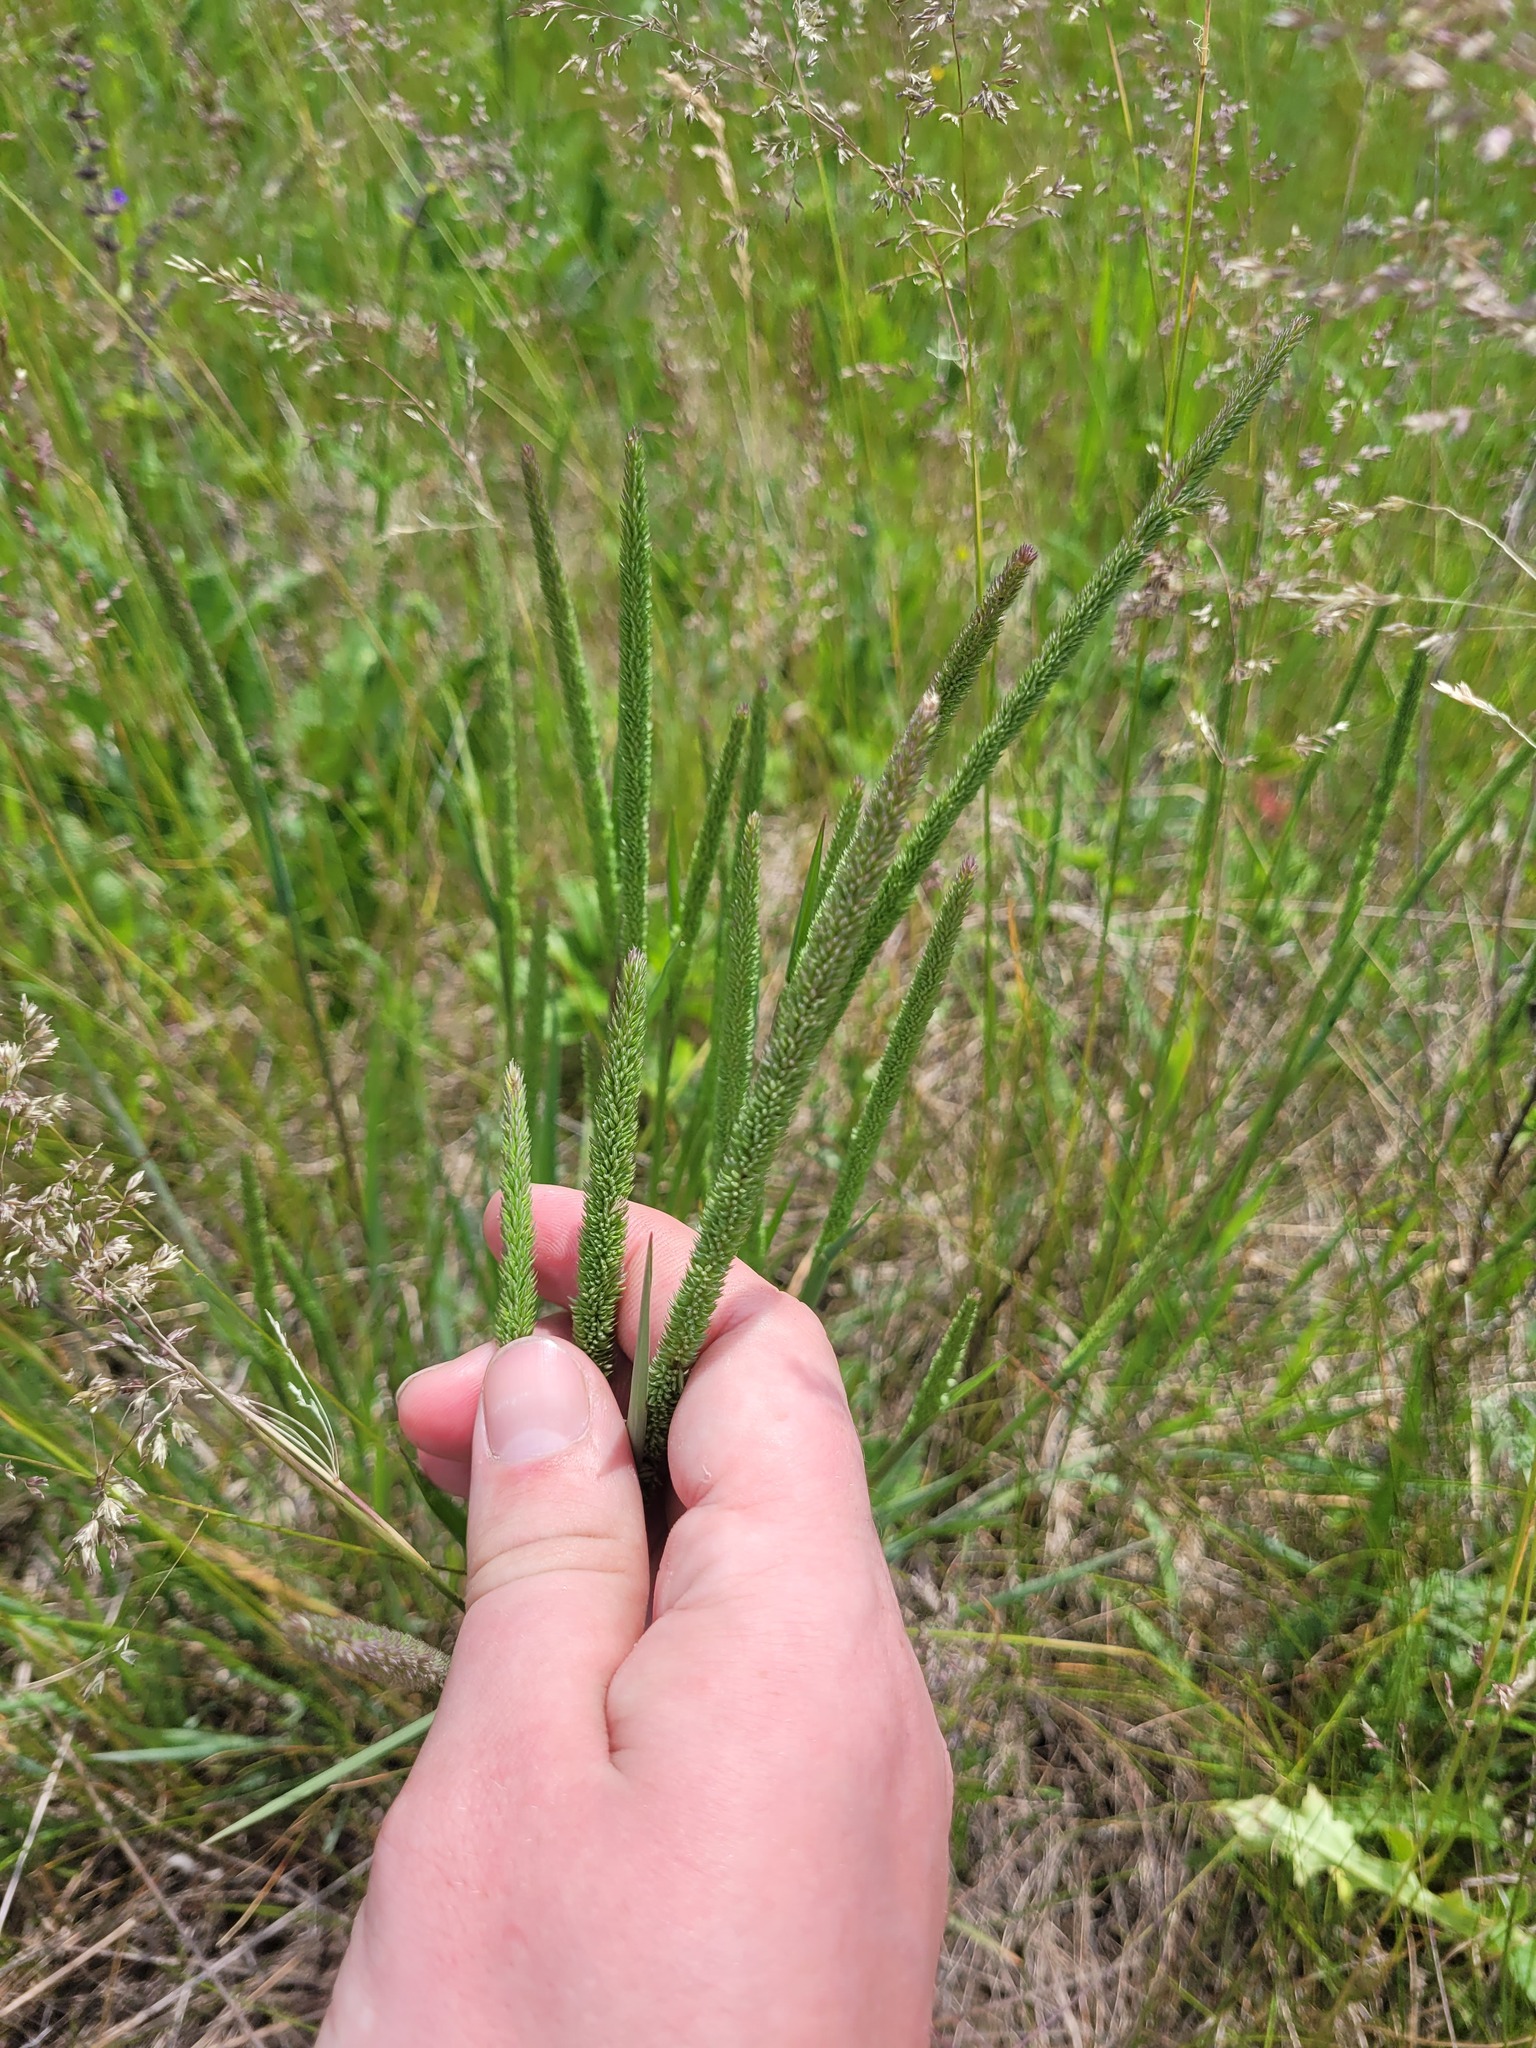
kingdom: Plantae
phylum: Tracheophyta
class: Liliopsida
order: Poales
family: Poaceae
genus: Phleum
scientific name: Phleum phleoides
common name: Purple-stem cat's-tail
